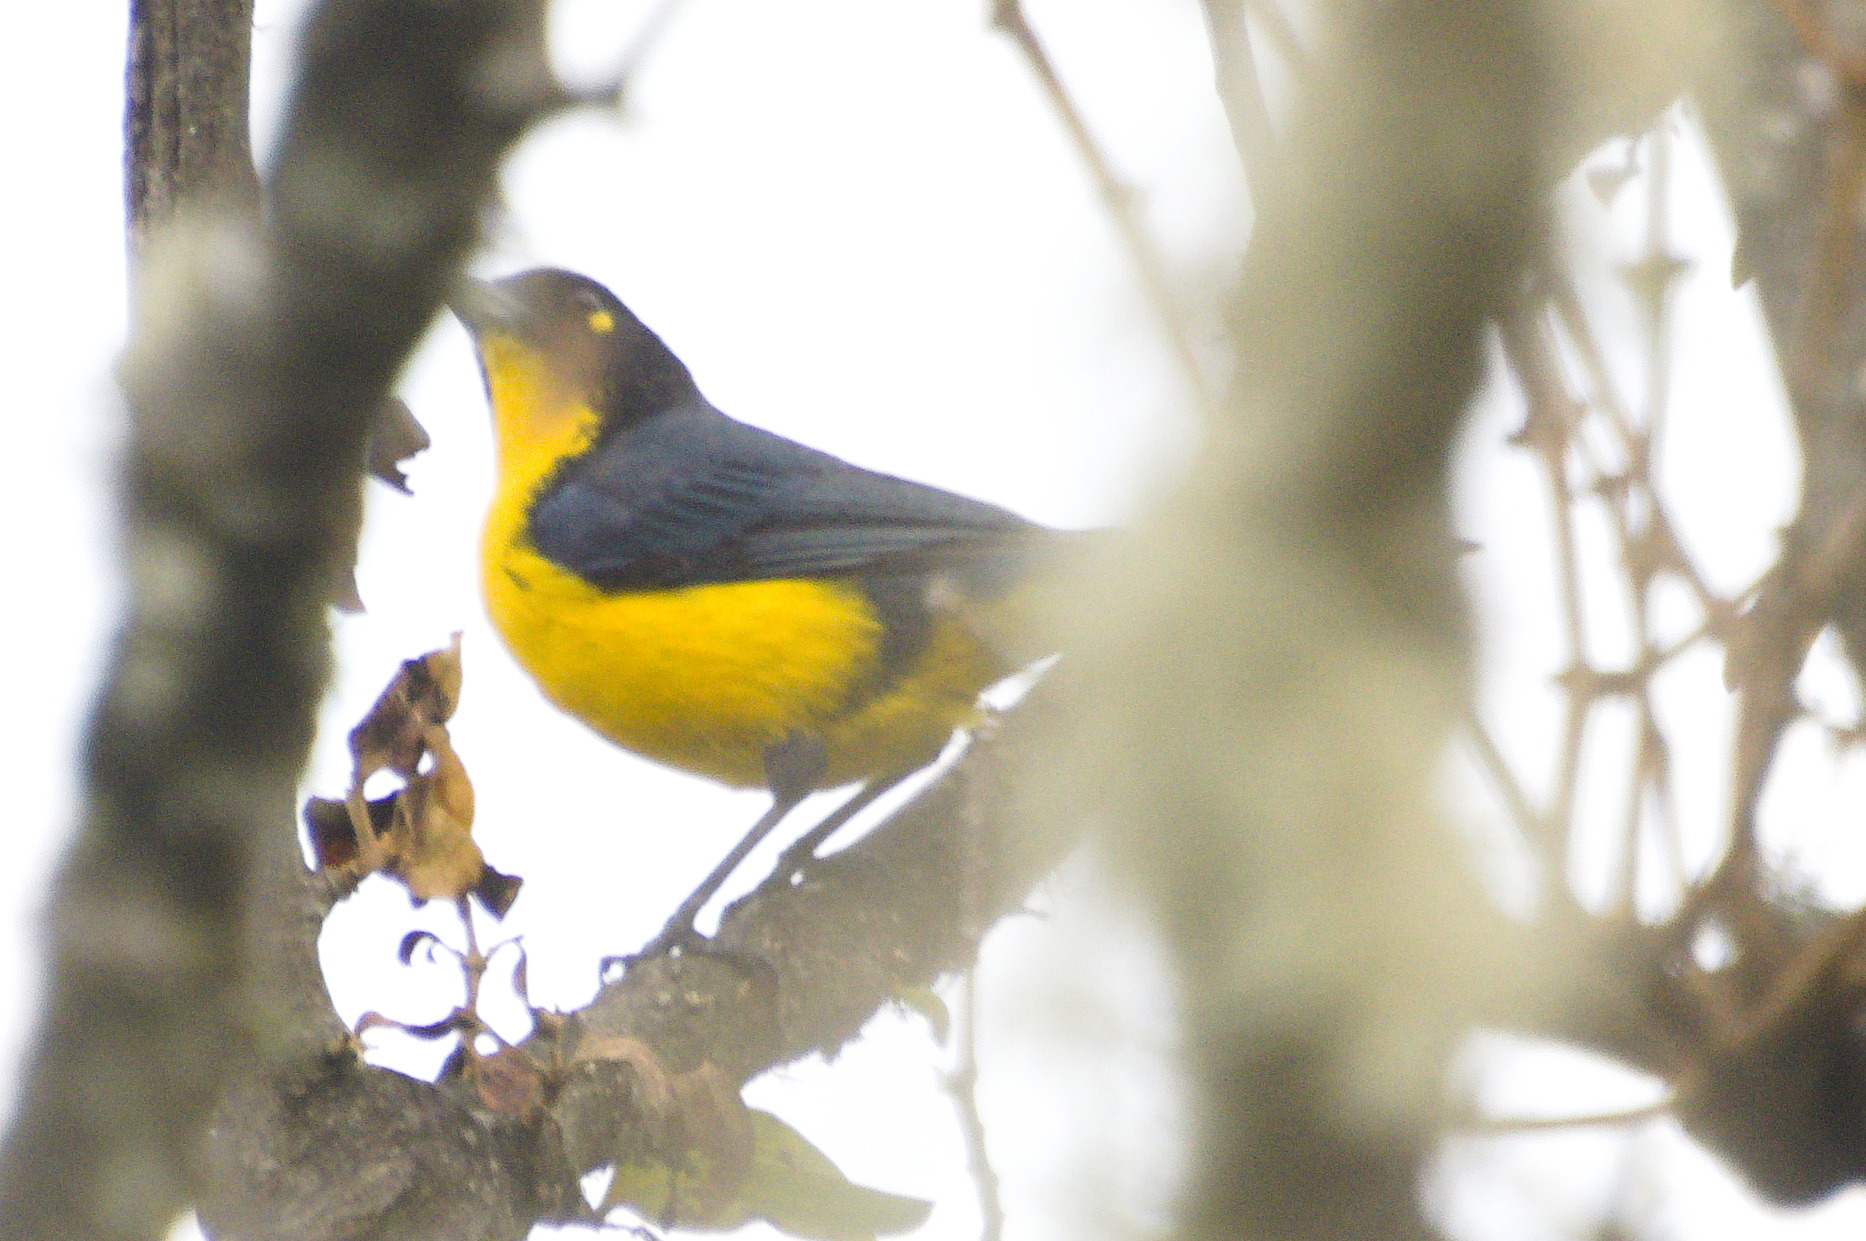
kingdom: Animalia
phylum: Chordata
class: Aves
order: Passeriformes
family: Thraupidae
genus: Anisognathus
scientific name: Anisognathus melanogenys
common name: Santa marta mountain tanager
